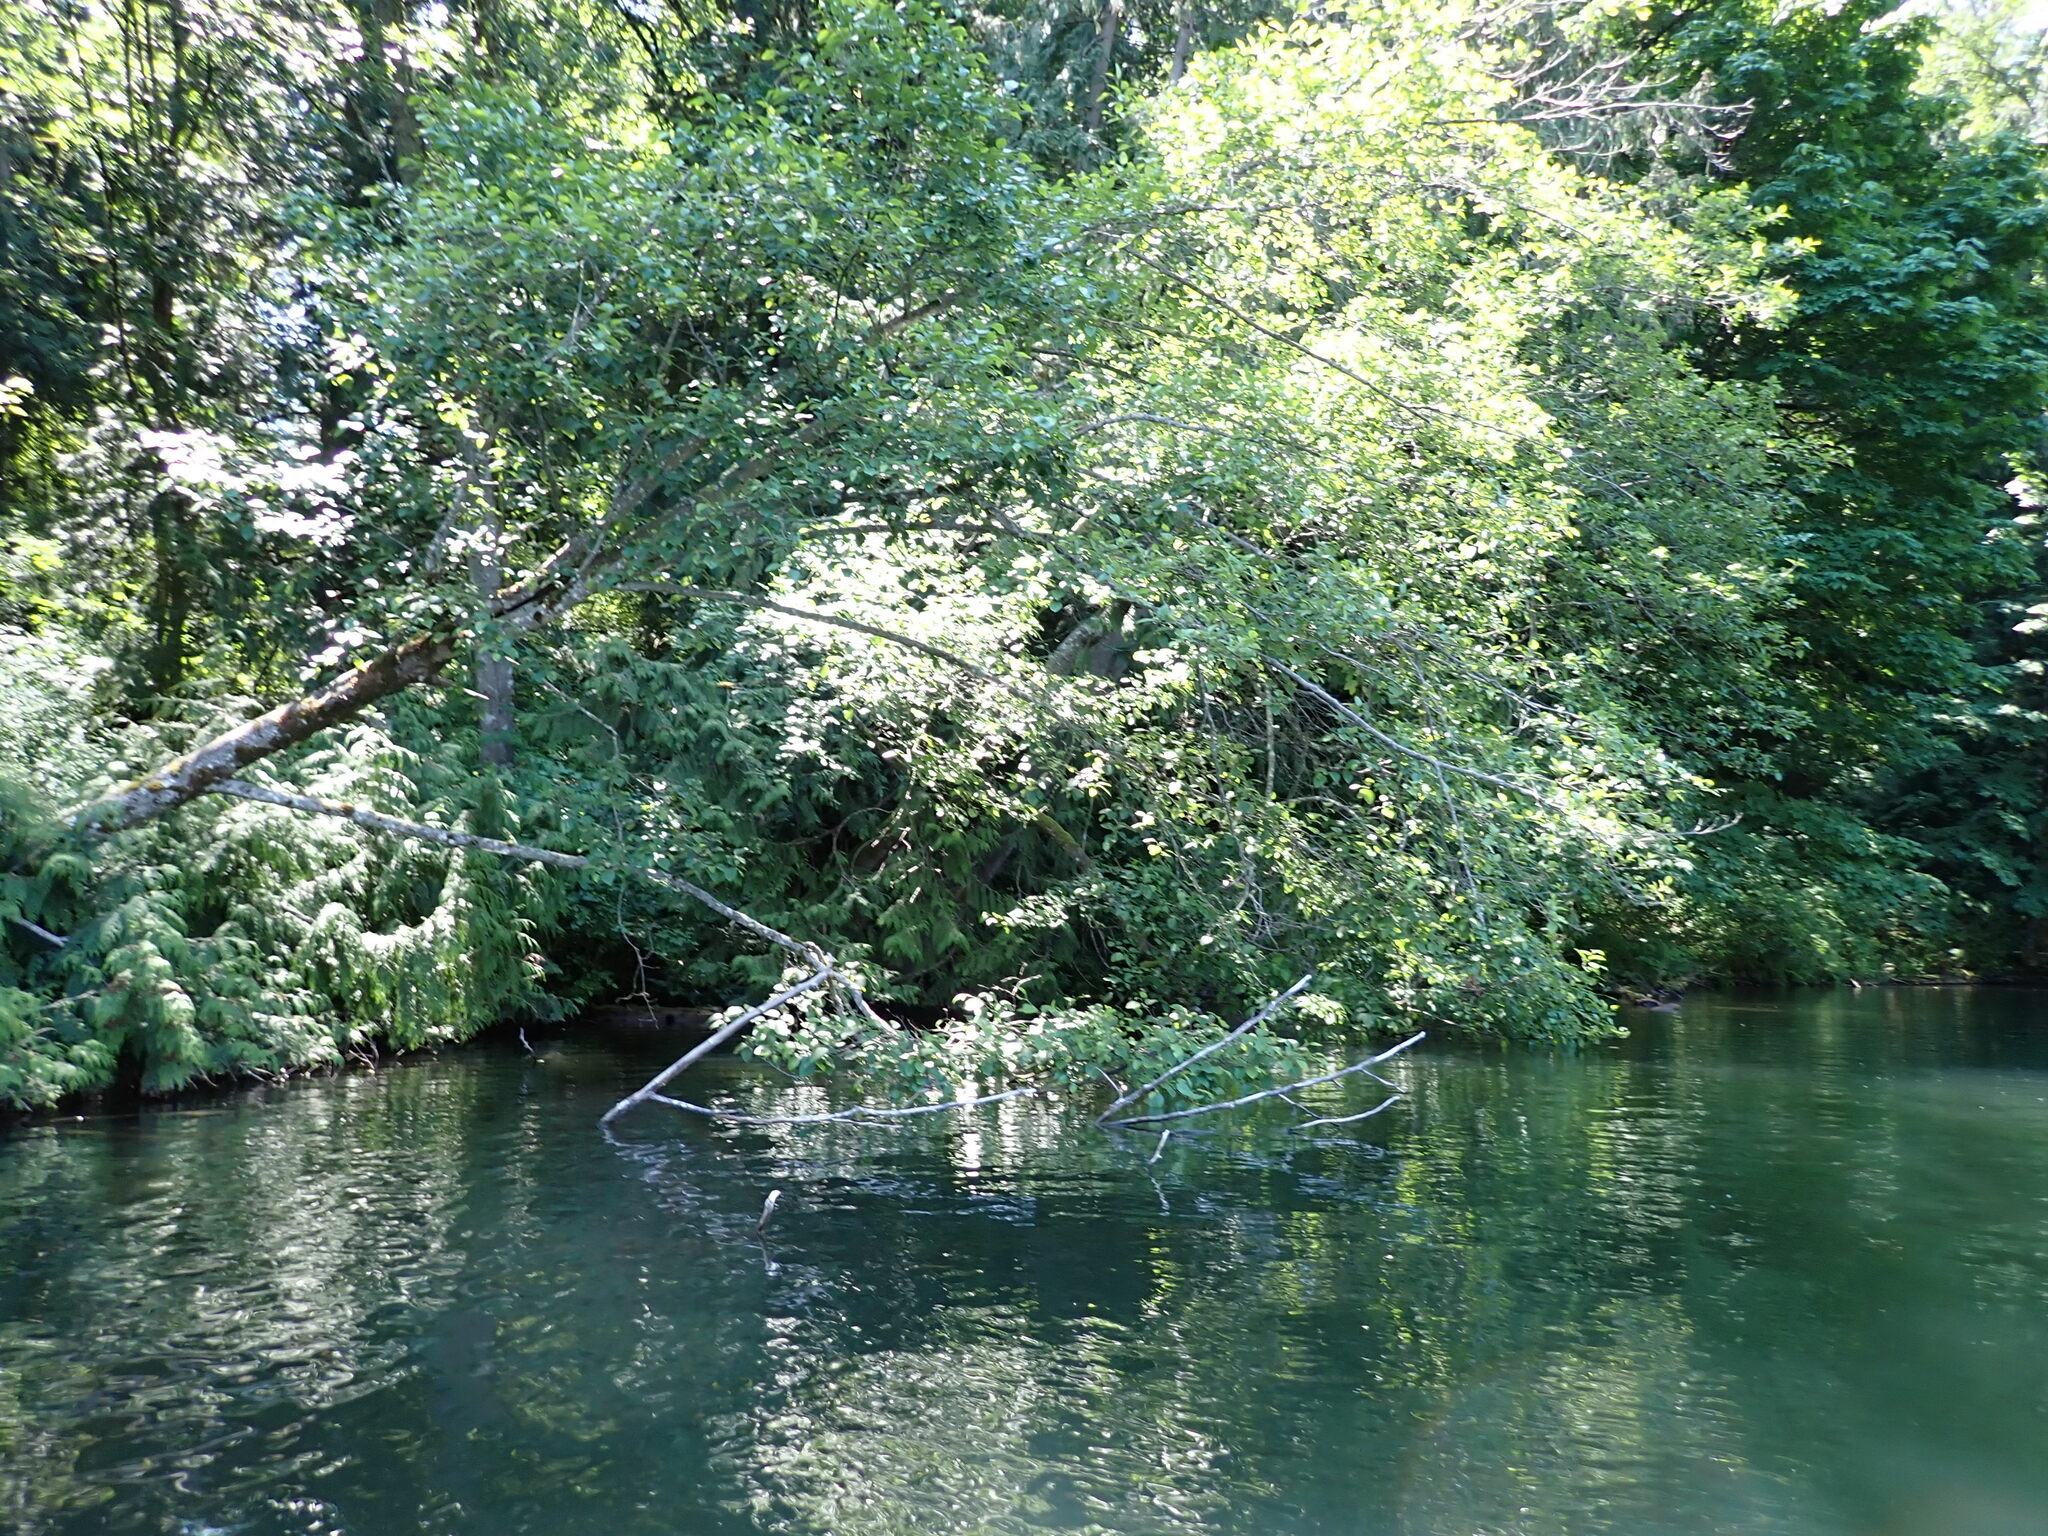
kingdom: Plantae
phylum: Tracheophyta
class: Magnoliopsida
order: Fagales
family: Betulaceae
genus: Alnus
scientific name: Alnus rubra
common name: Red alder
